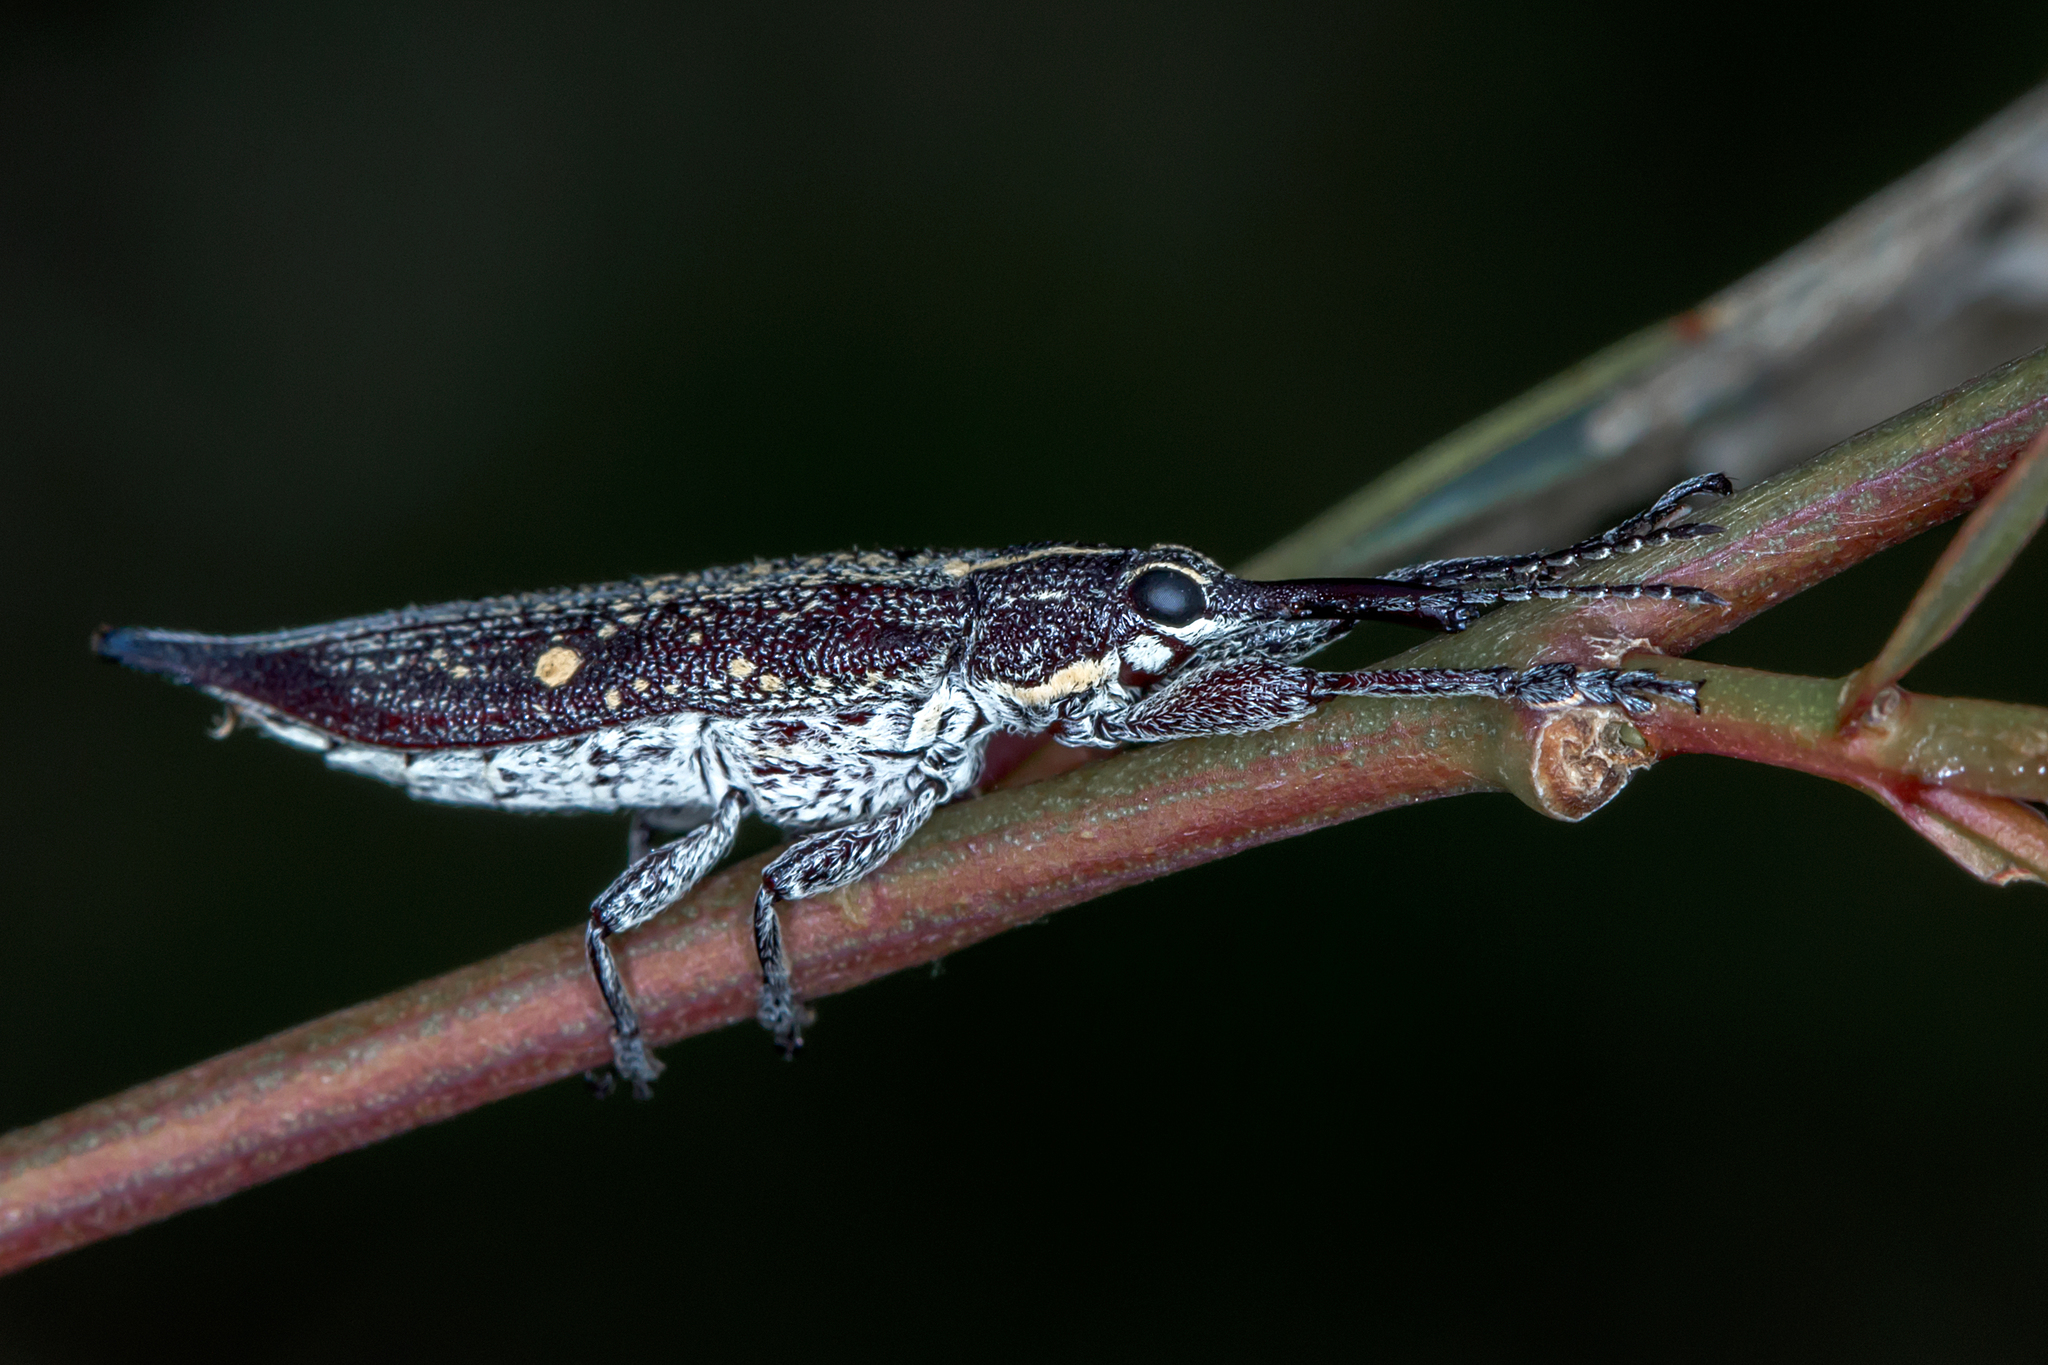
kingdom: Animalia
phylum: Arthropoda
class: Insecta
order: Coleoptera
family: Belidae
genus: Rhinotia
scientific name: Rhinotia bidentata
